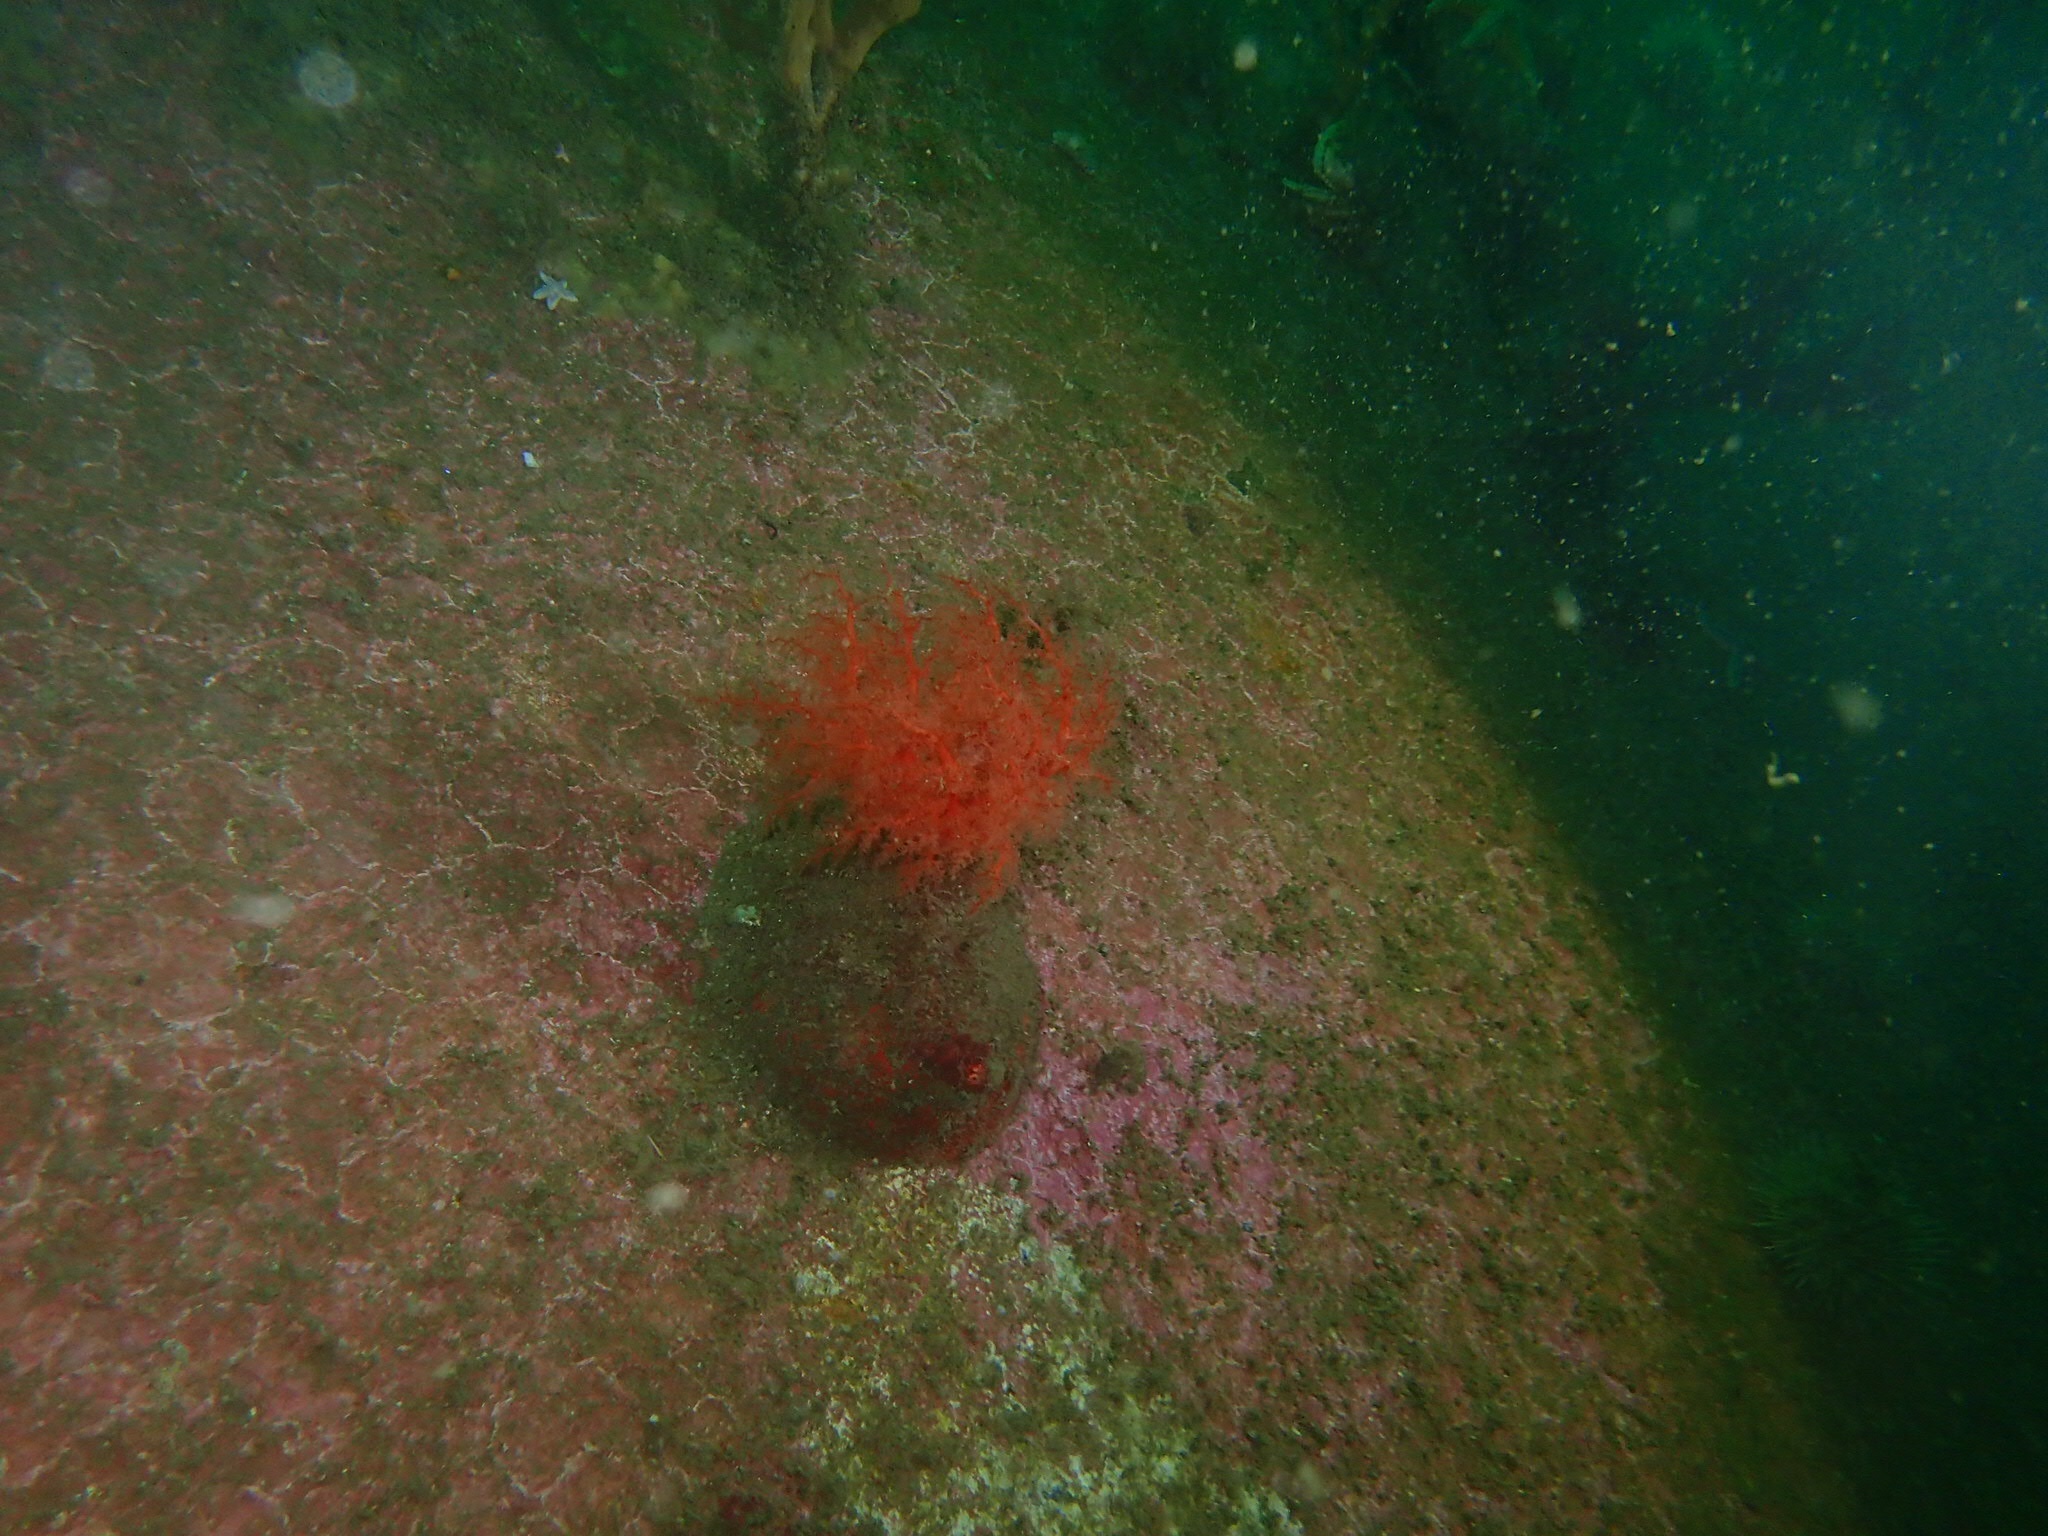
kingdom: Animalia
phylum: Echinodermata
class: Holothuroidea
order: Dendrochirotida
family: Psolidae
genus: Psolus
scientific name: Psolus fabricii
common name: Scarlet psolus
